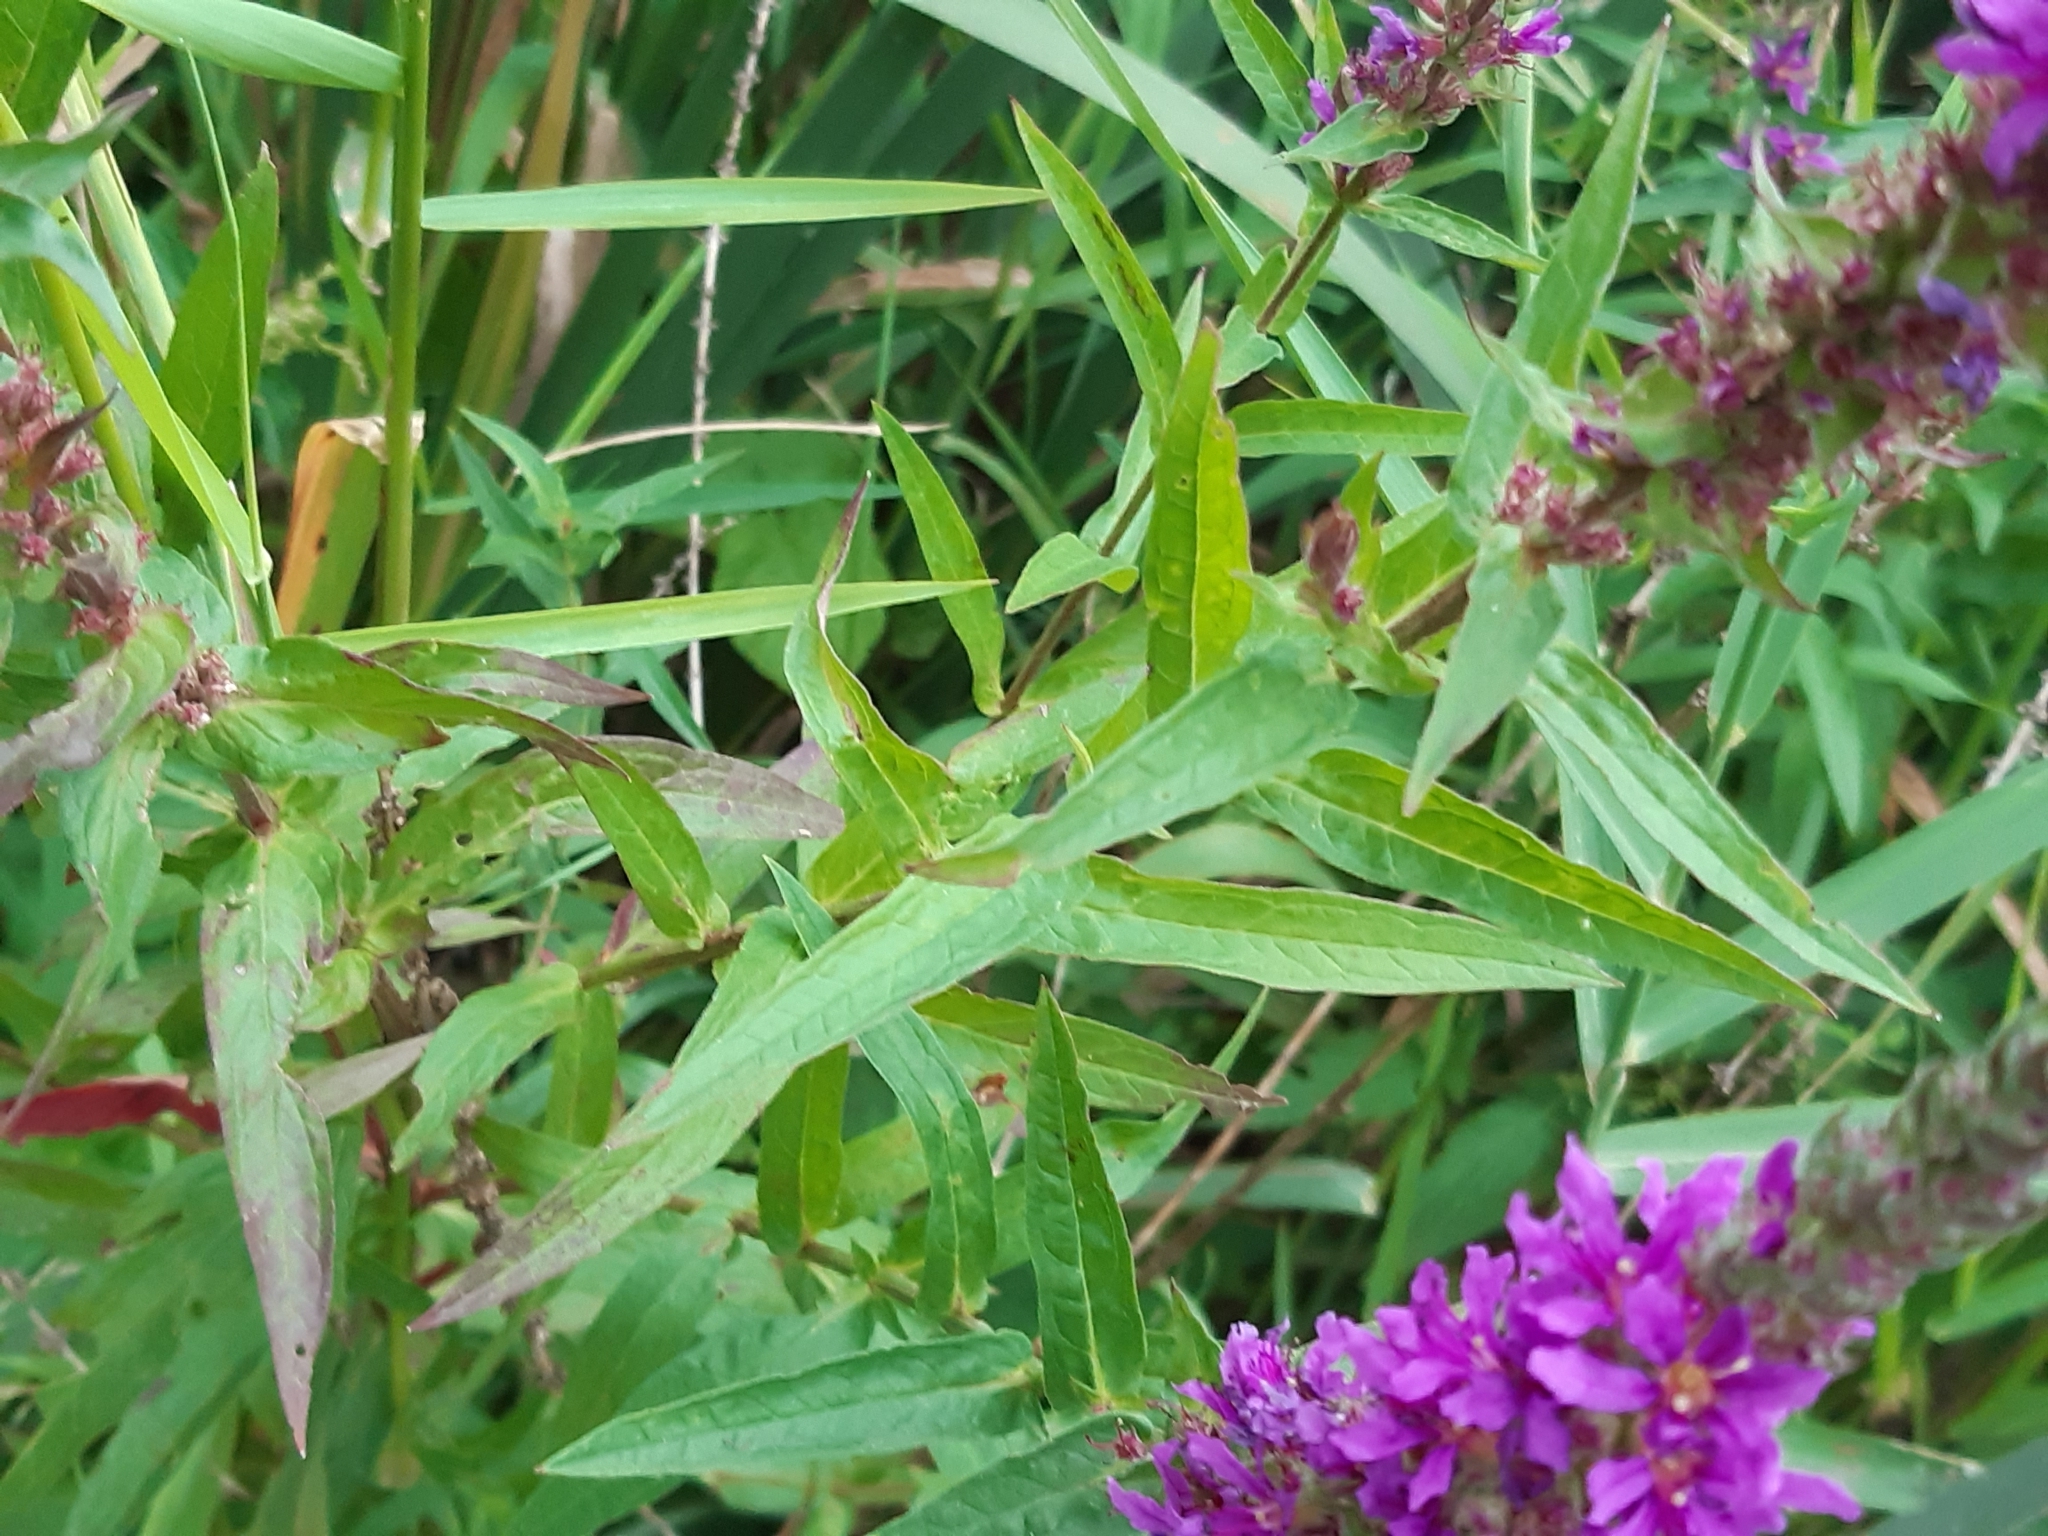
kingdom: Plantae
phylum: Tracheophyta
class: Magnoliopsida
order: Myrtales
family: Lythraceae
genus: Lythrum
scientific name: Lythrum salicaria
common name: Purple loosestrife
